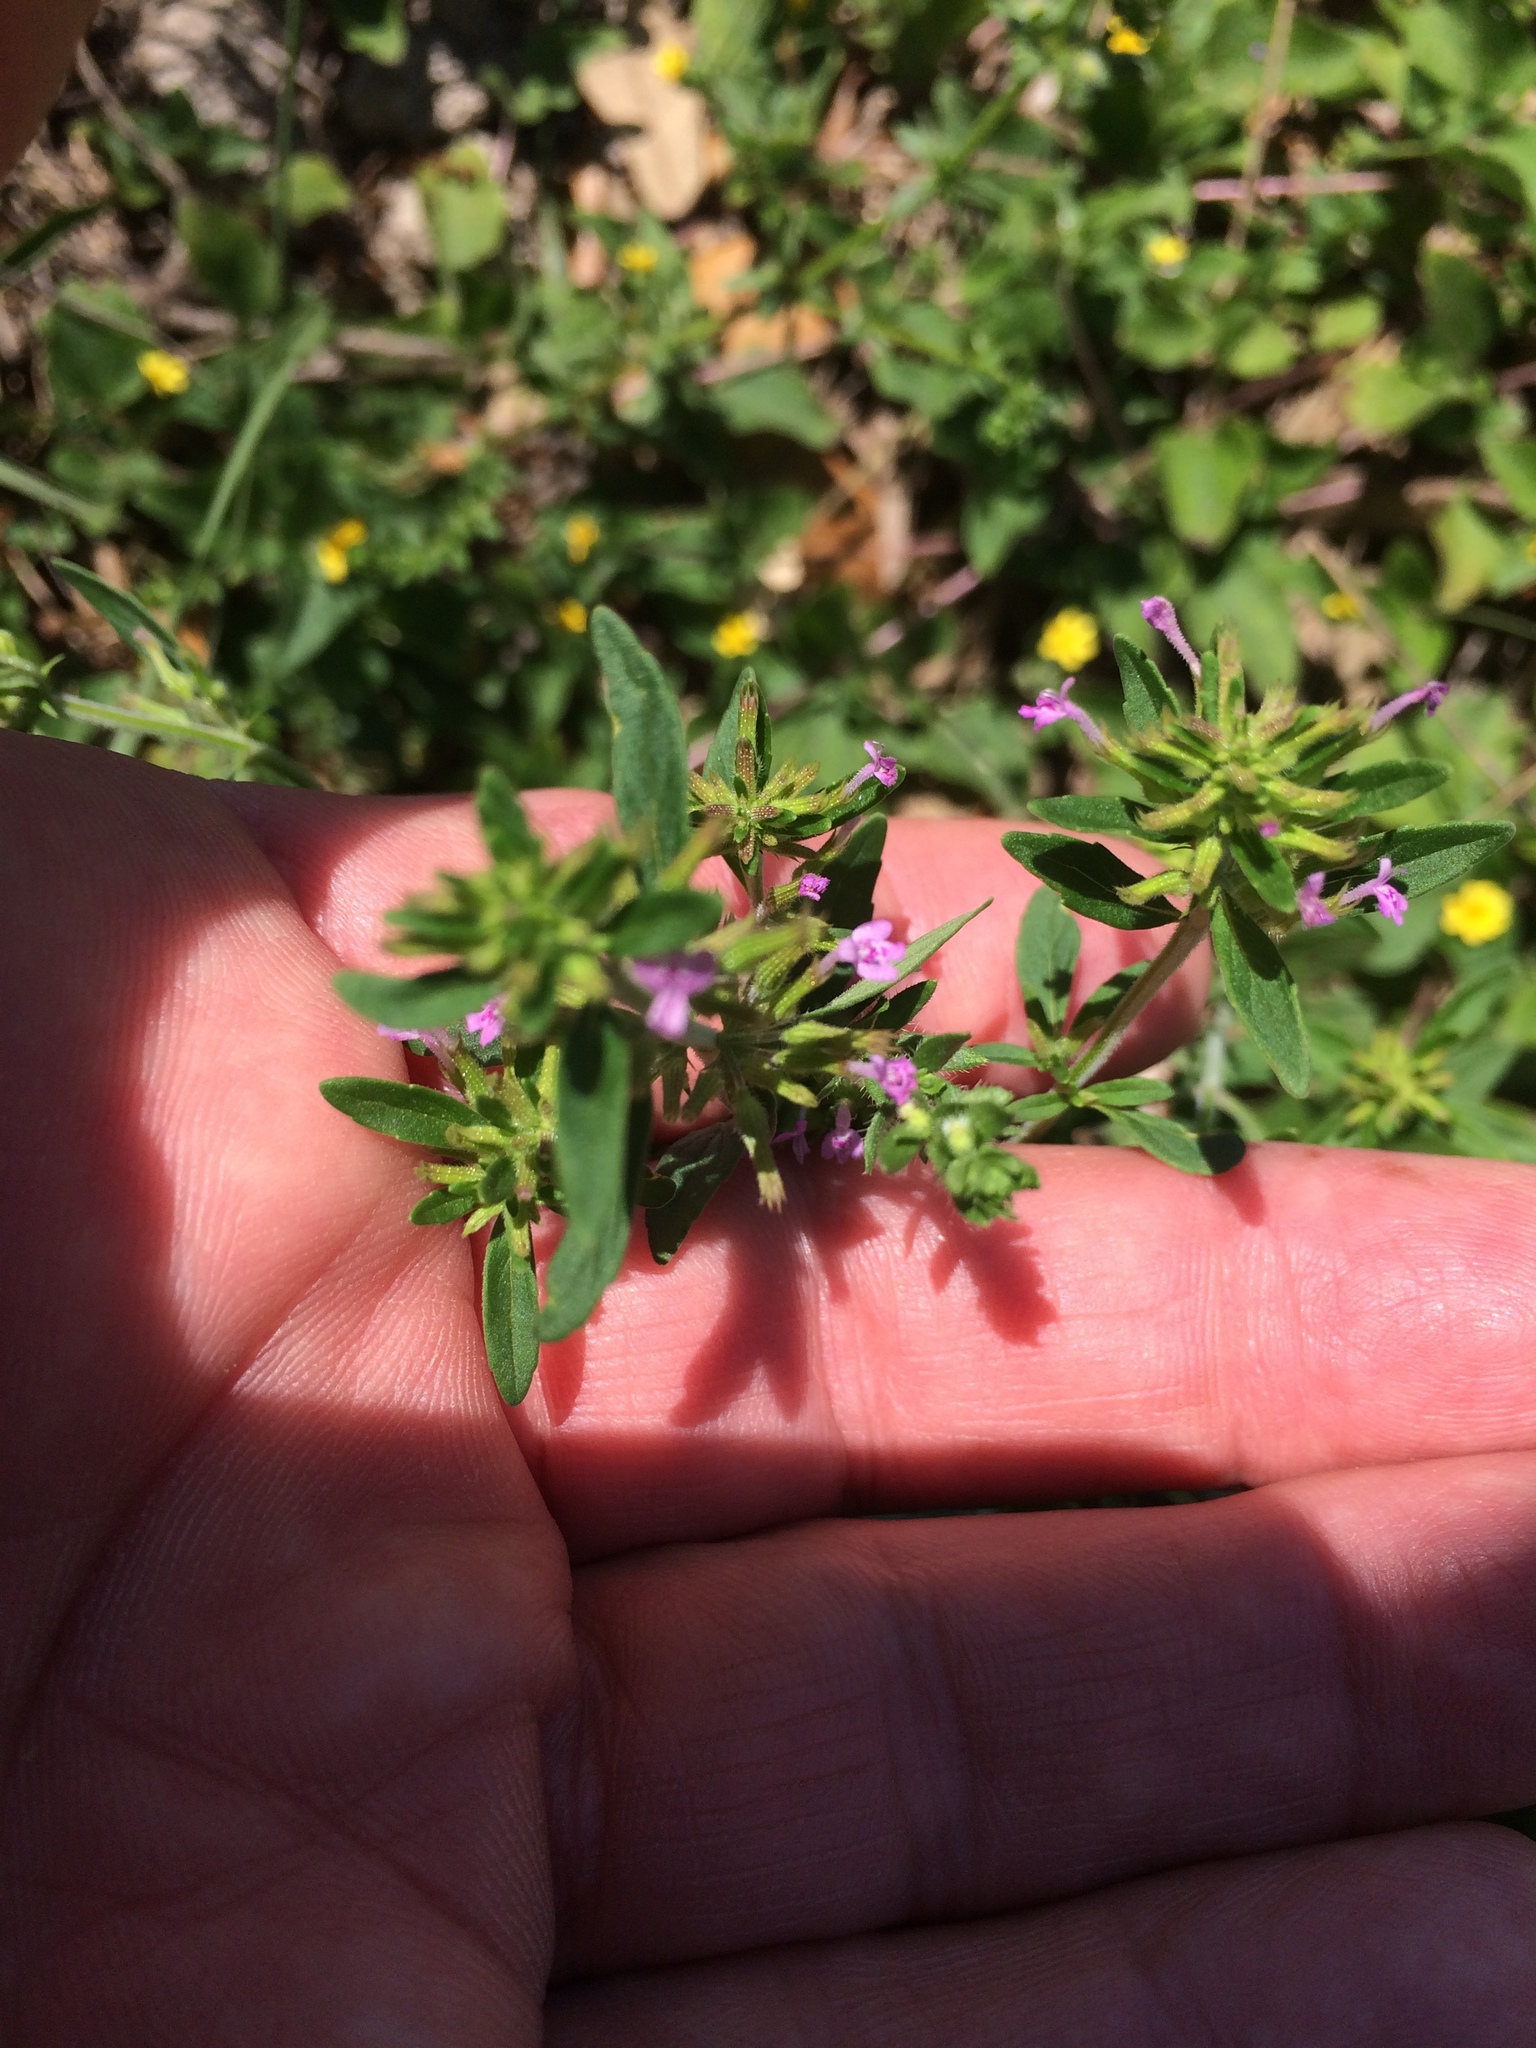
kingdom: Plantae
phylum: Tracheophyta
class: Magnoliopsida
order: Lamiales
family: Lamiaceae
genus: Hedeoma
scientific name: Hedeoma acinoides
